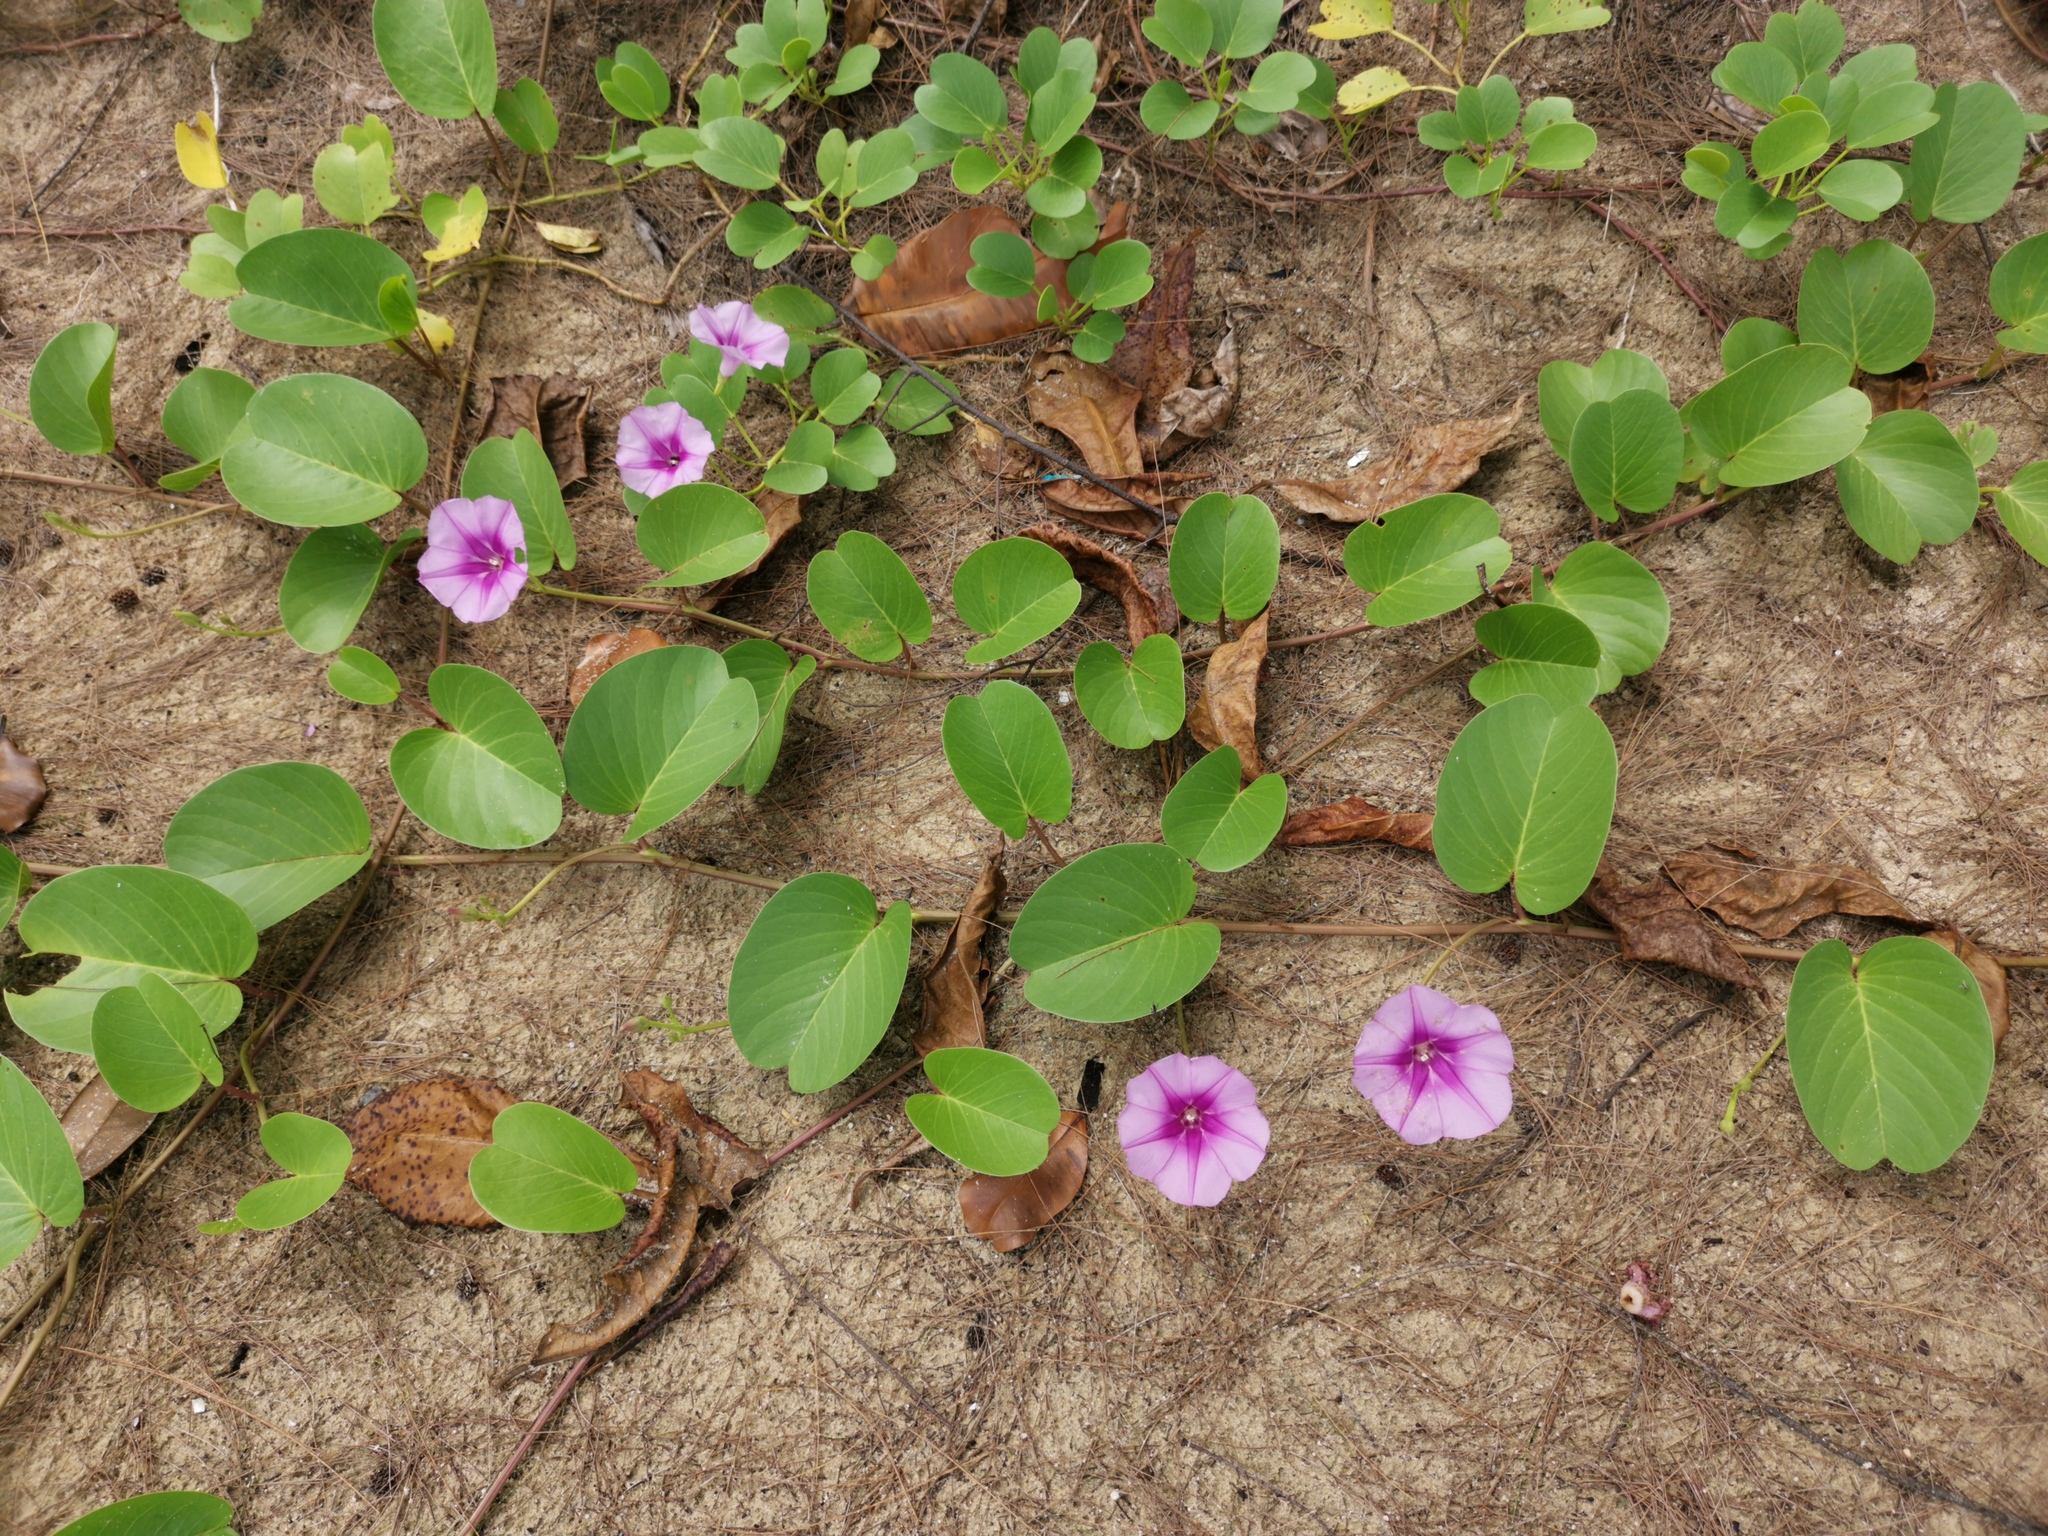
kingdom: Plantae
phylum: Tracheophyta
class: Magnoliopsida
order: Solanales
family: Convolvulaceae
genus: Ipomoea
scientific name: Ipomoea pes-caprae
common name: Beach morning glory
